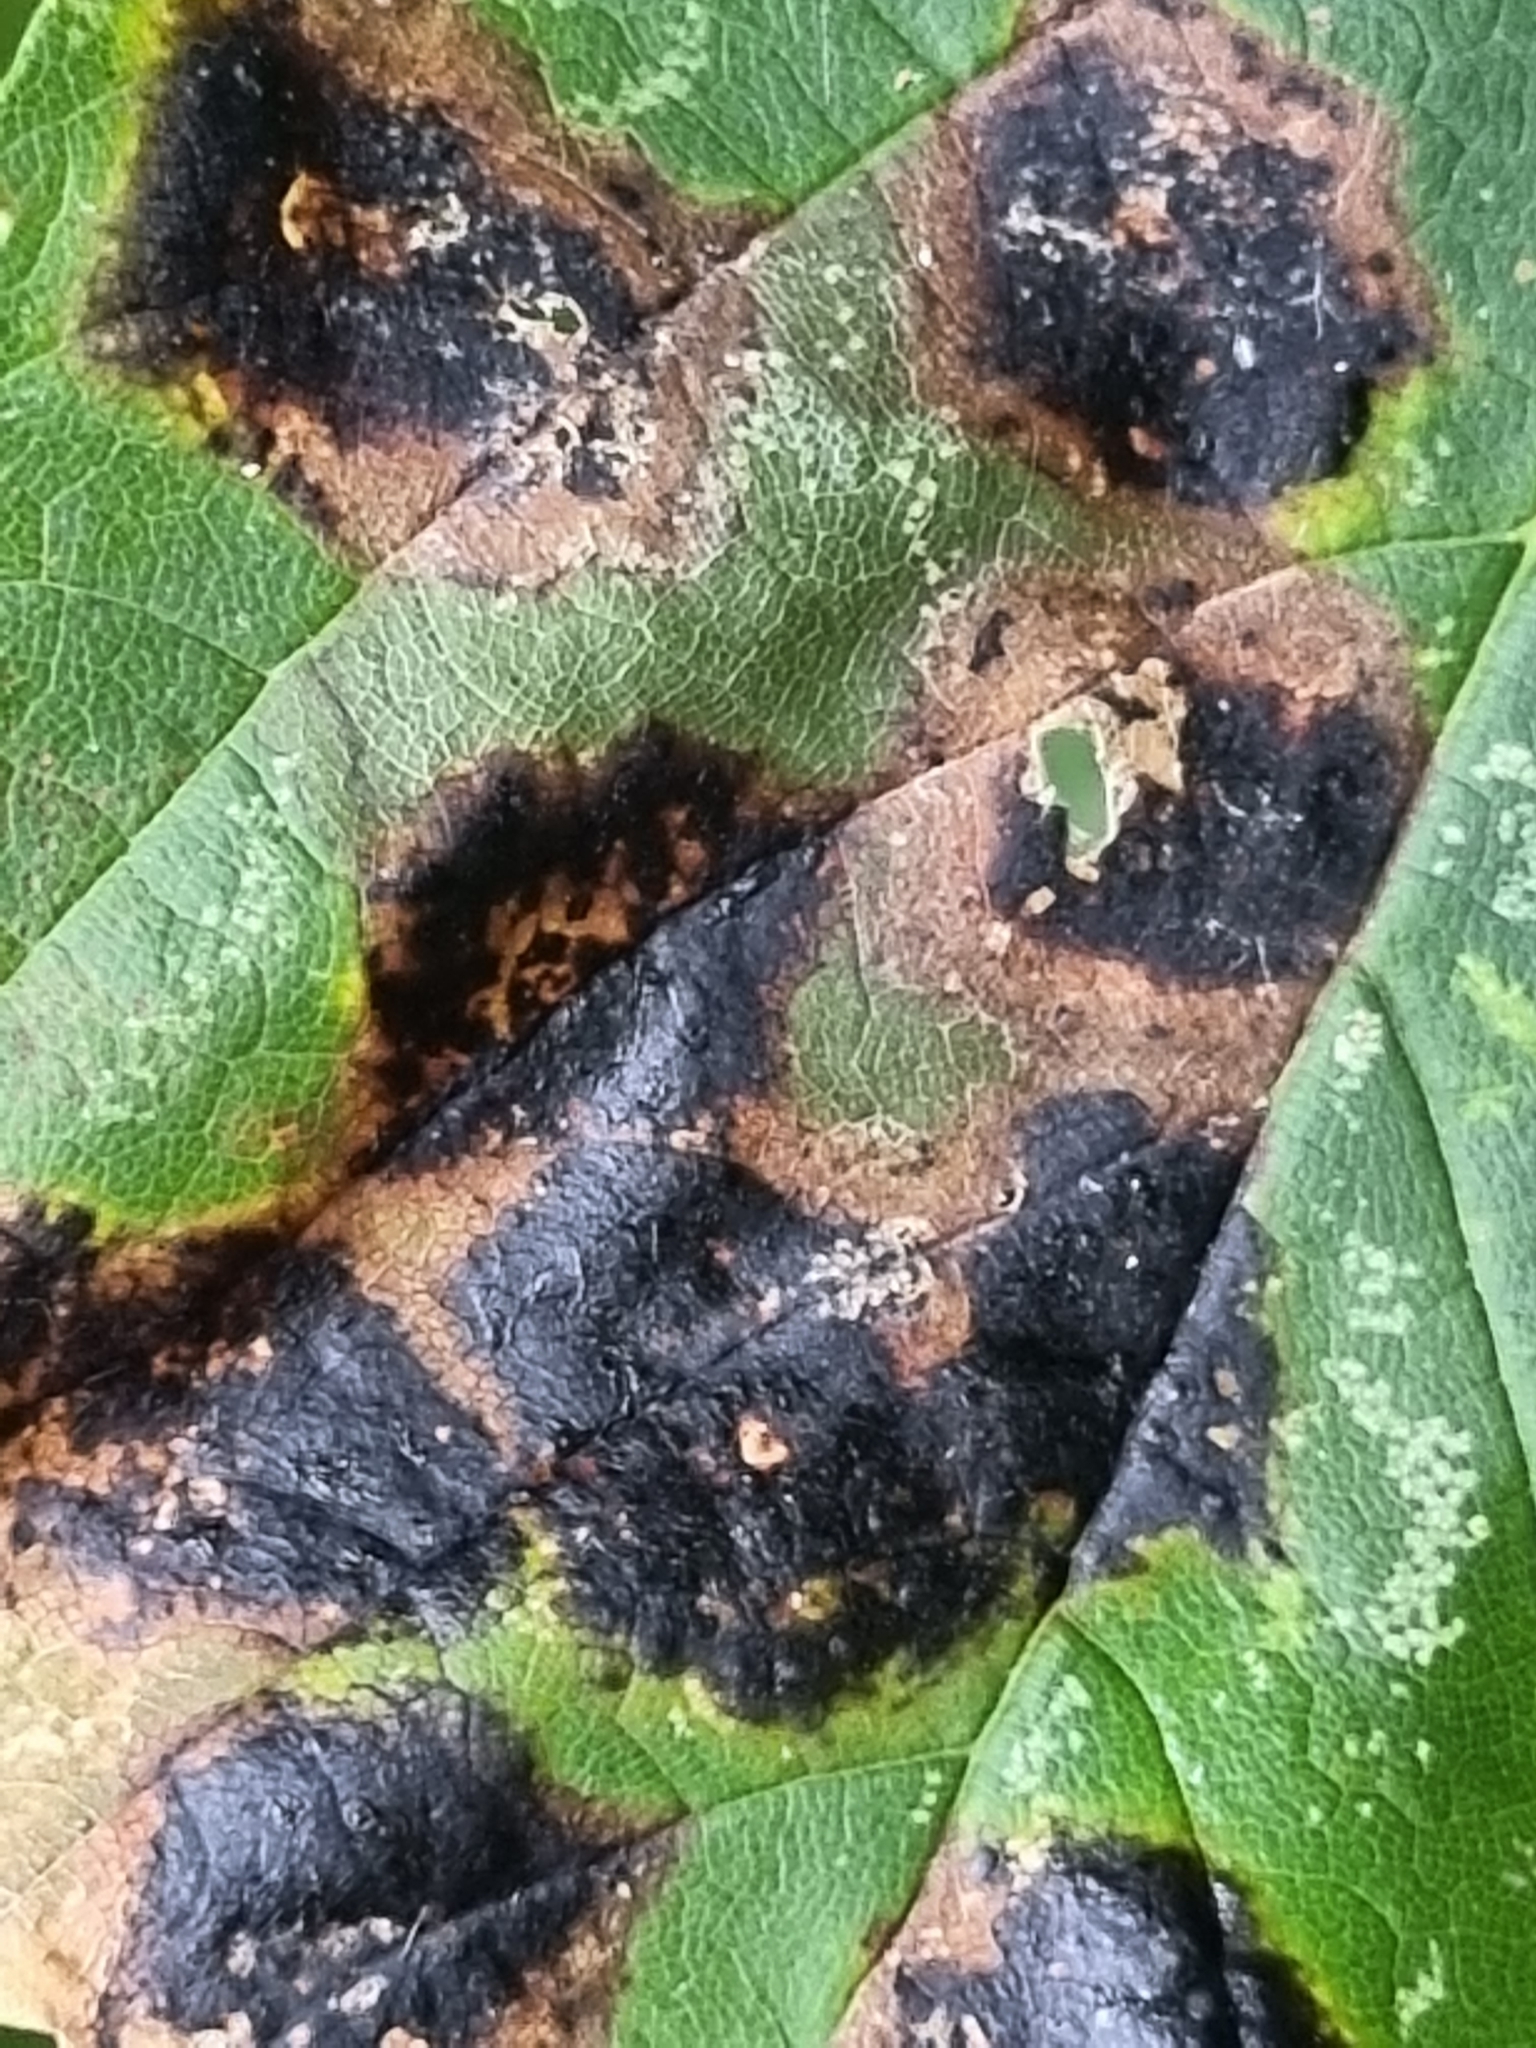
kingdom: Fungi
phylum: Ascomycota
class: Leotiomycetes
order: Rhytismatales
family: Rhytismataceae
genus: Rhytisma
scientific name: Rhytisma acerinum
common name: European tar spot
